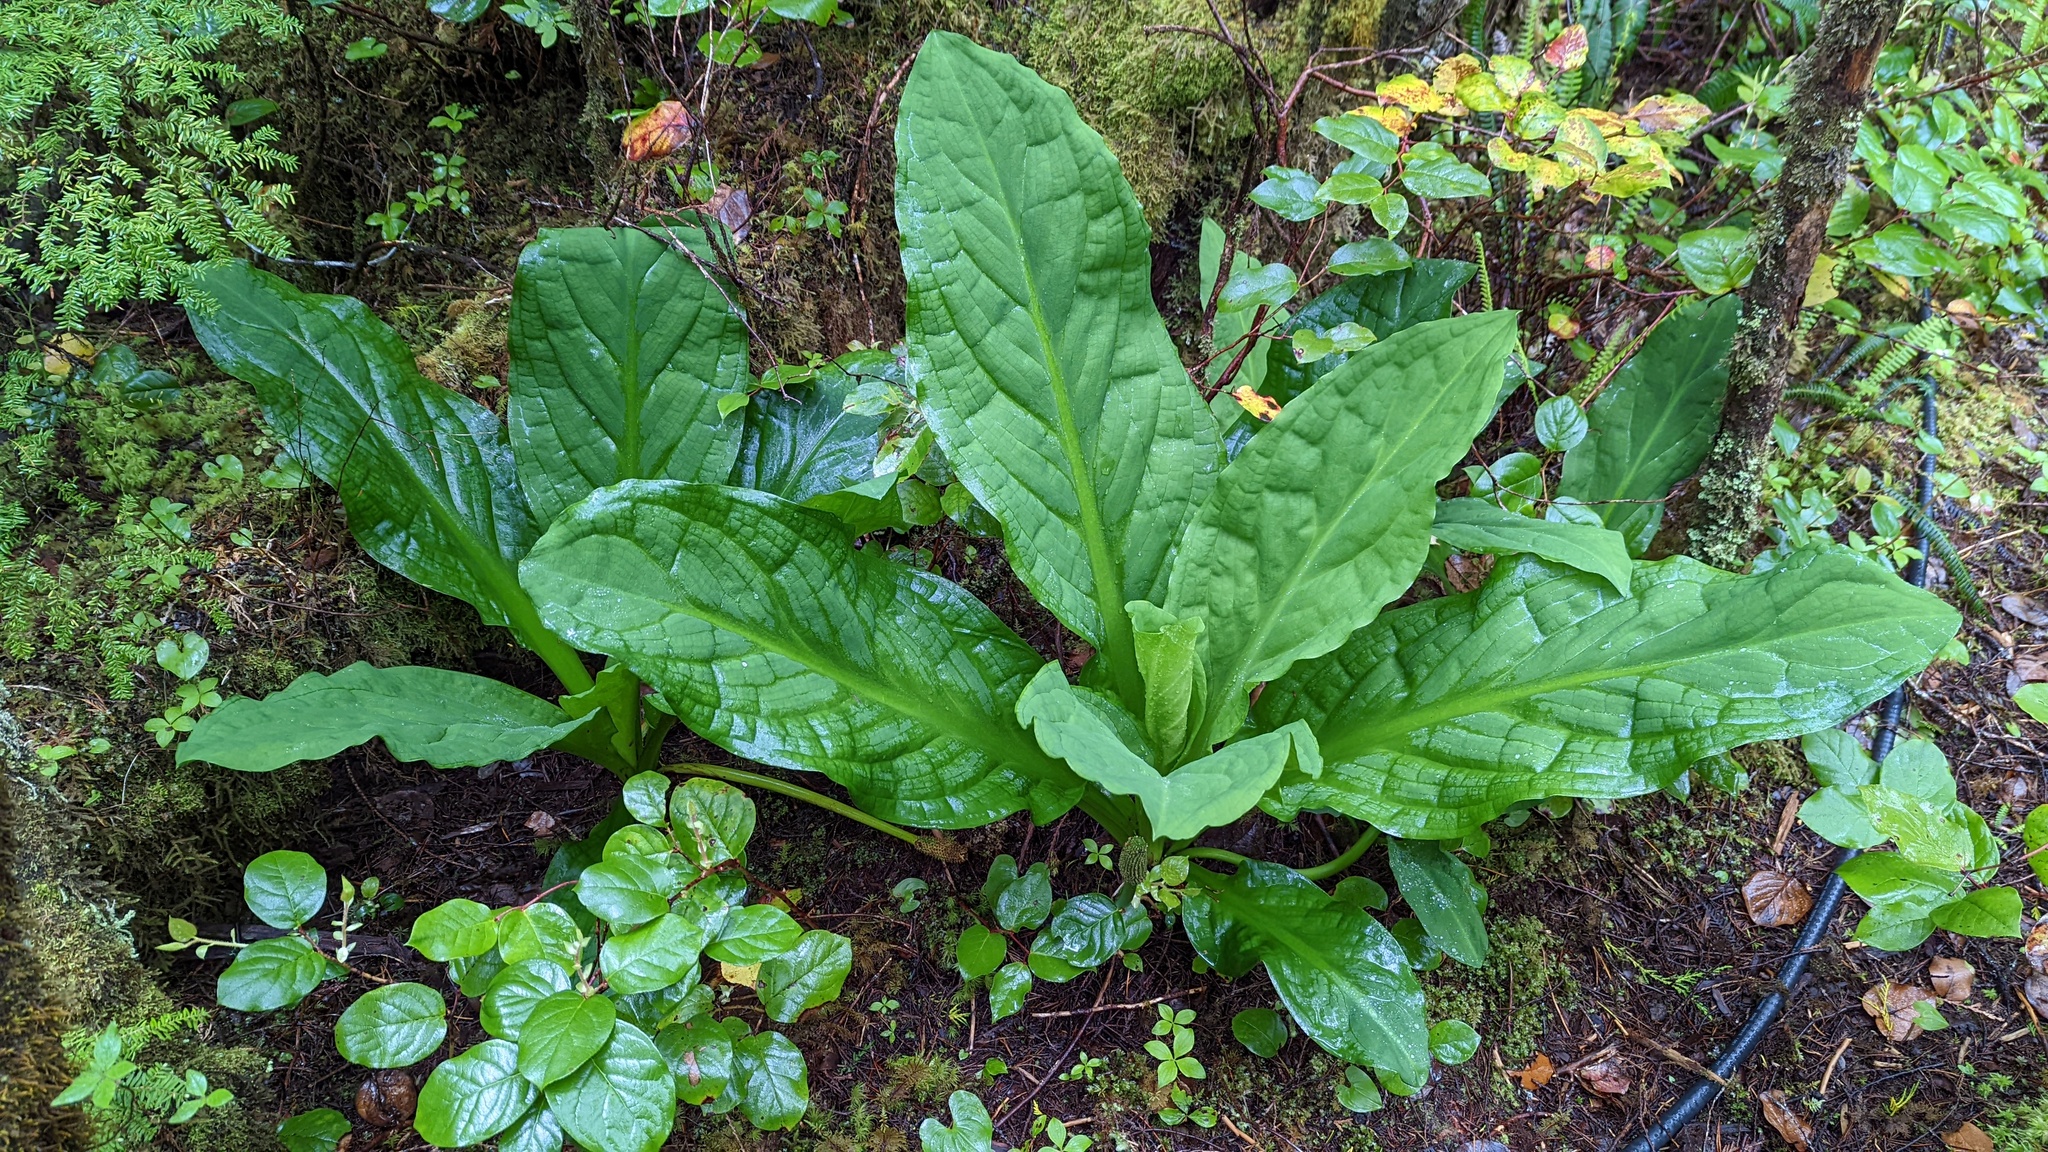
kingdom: Plantae
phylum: Tracheophyta
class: Liliopsida
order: Alismatales
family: Araceae
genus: Lysichiton
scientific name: Lysichiton americanus
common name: American skunk cabbage
